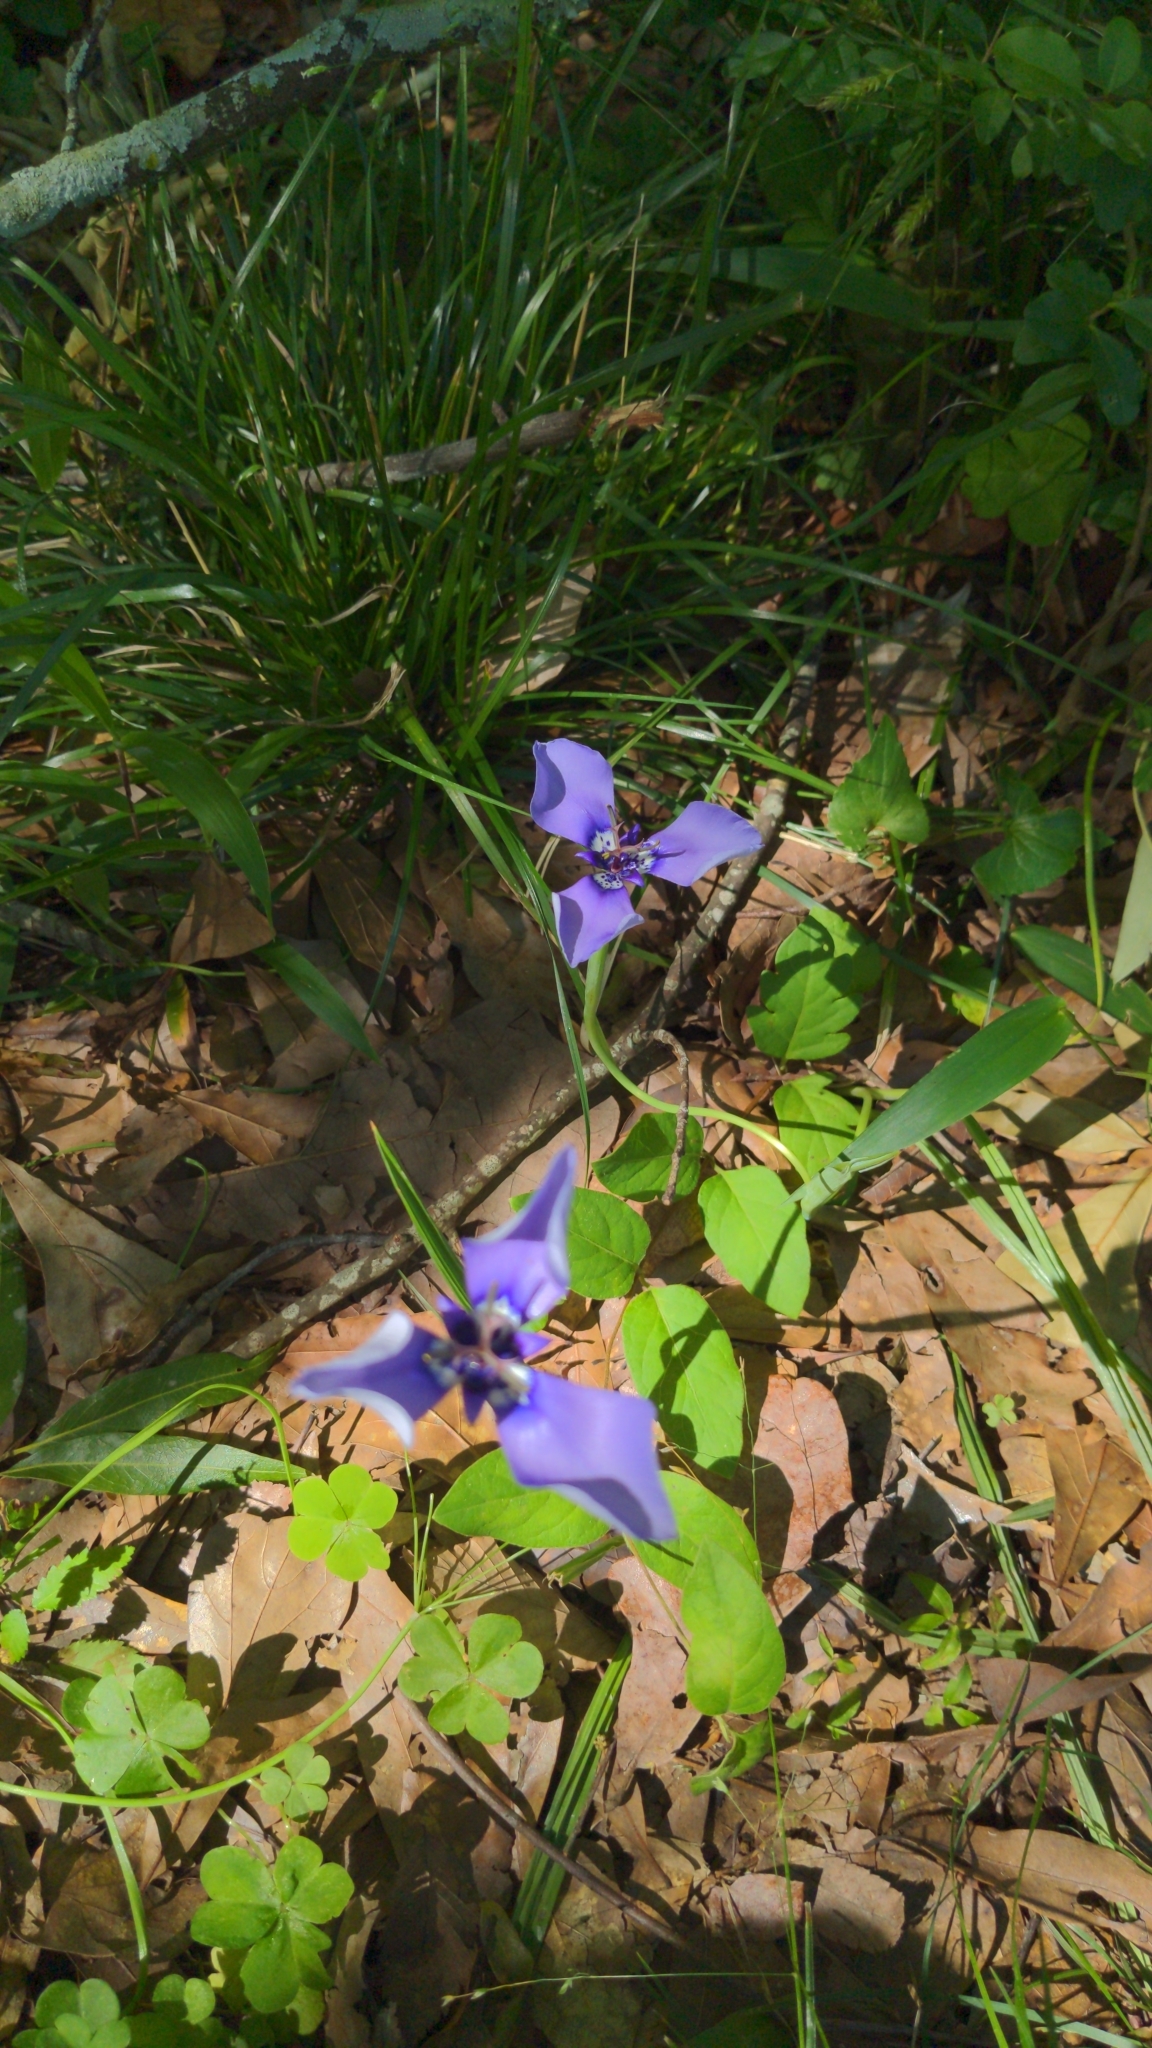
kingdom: Plantae
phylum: Tracheophyta
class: Liliopsida
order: Asparagales
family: Iridaceae
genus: Herbertia
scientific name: Herbertia lahue
